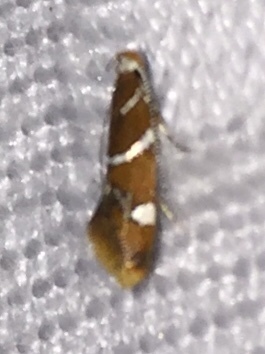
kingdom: Animalia
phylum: Arthropoda
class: Insecta
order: Lepidoptera
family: Oecophoridae
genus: Promalactis
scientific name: Promalactis suzukiella
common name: Moth
